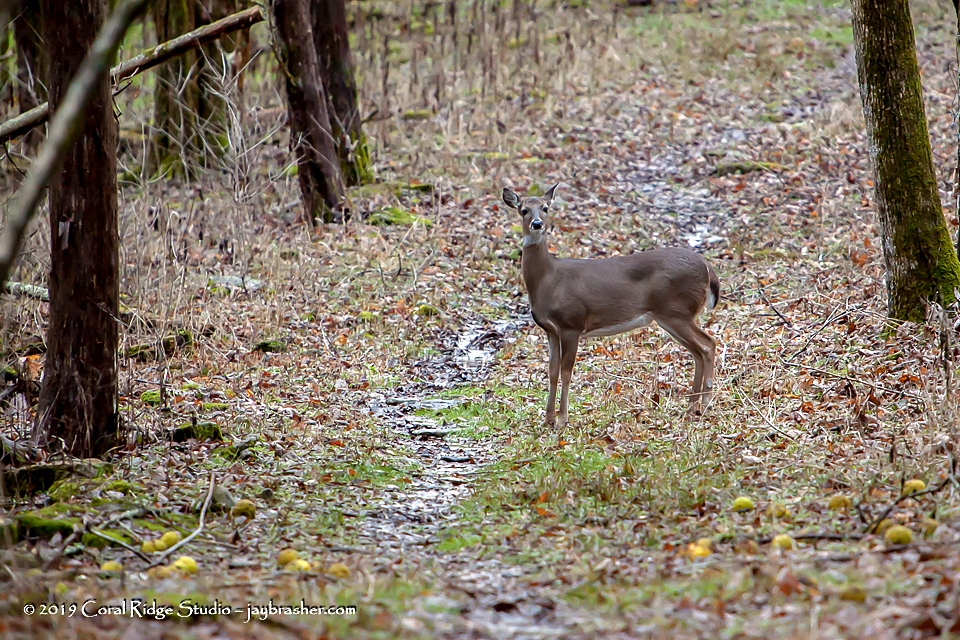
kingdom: Animalia
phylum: Chordata
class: Mammalia
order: Artiodactyla
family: Cervidae
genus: Odocoileus
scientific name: Odocoileus virginianus
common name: White-tailed deer
